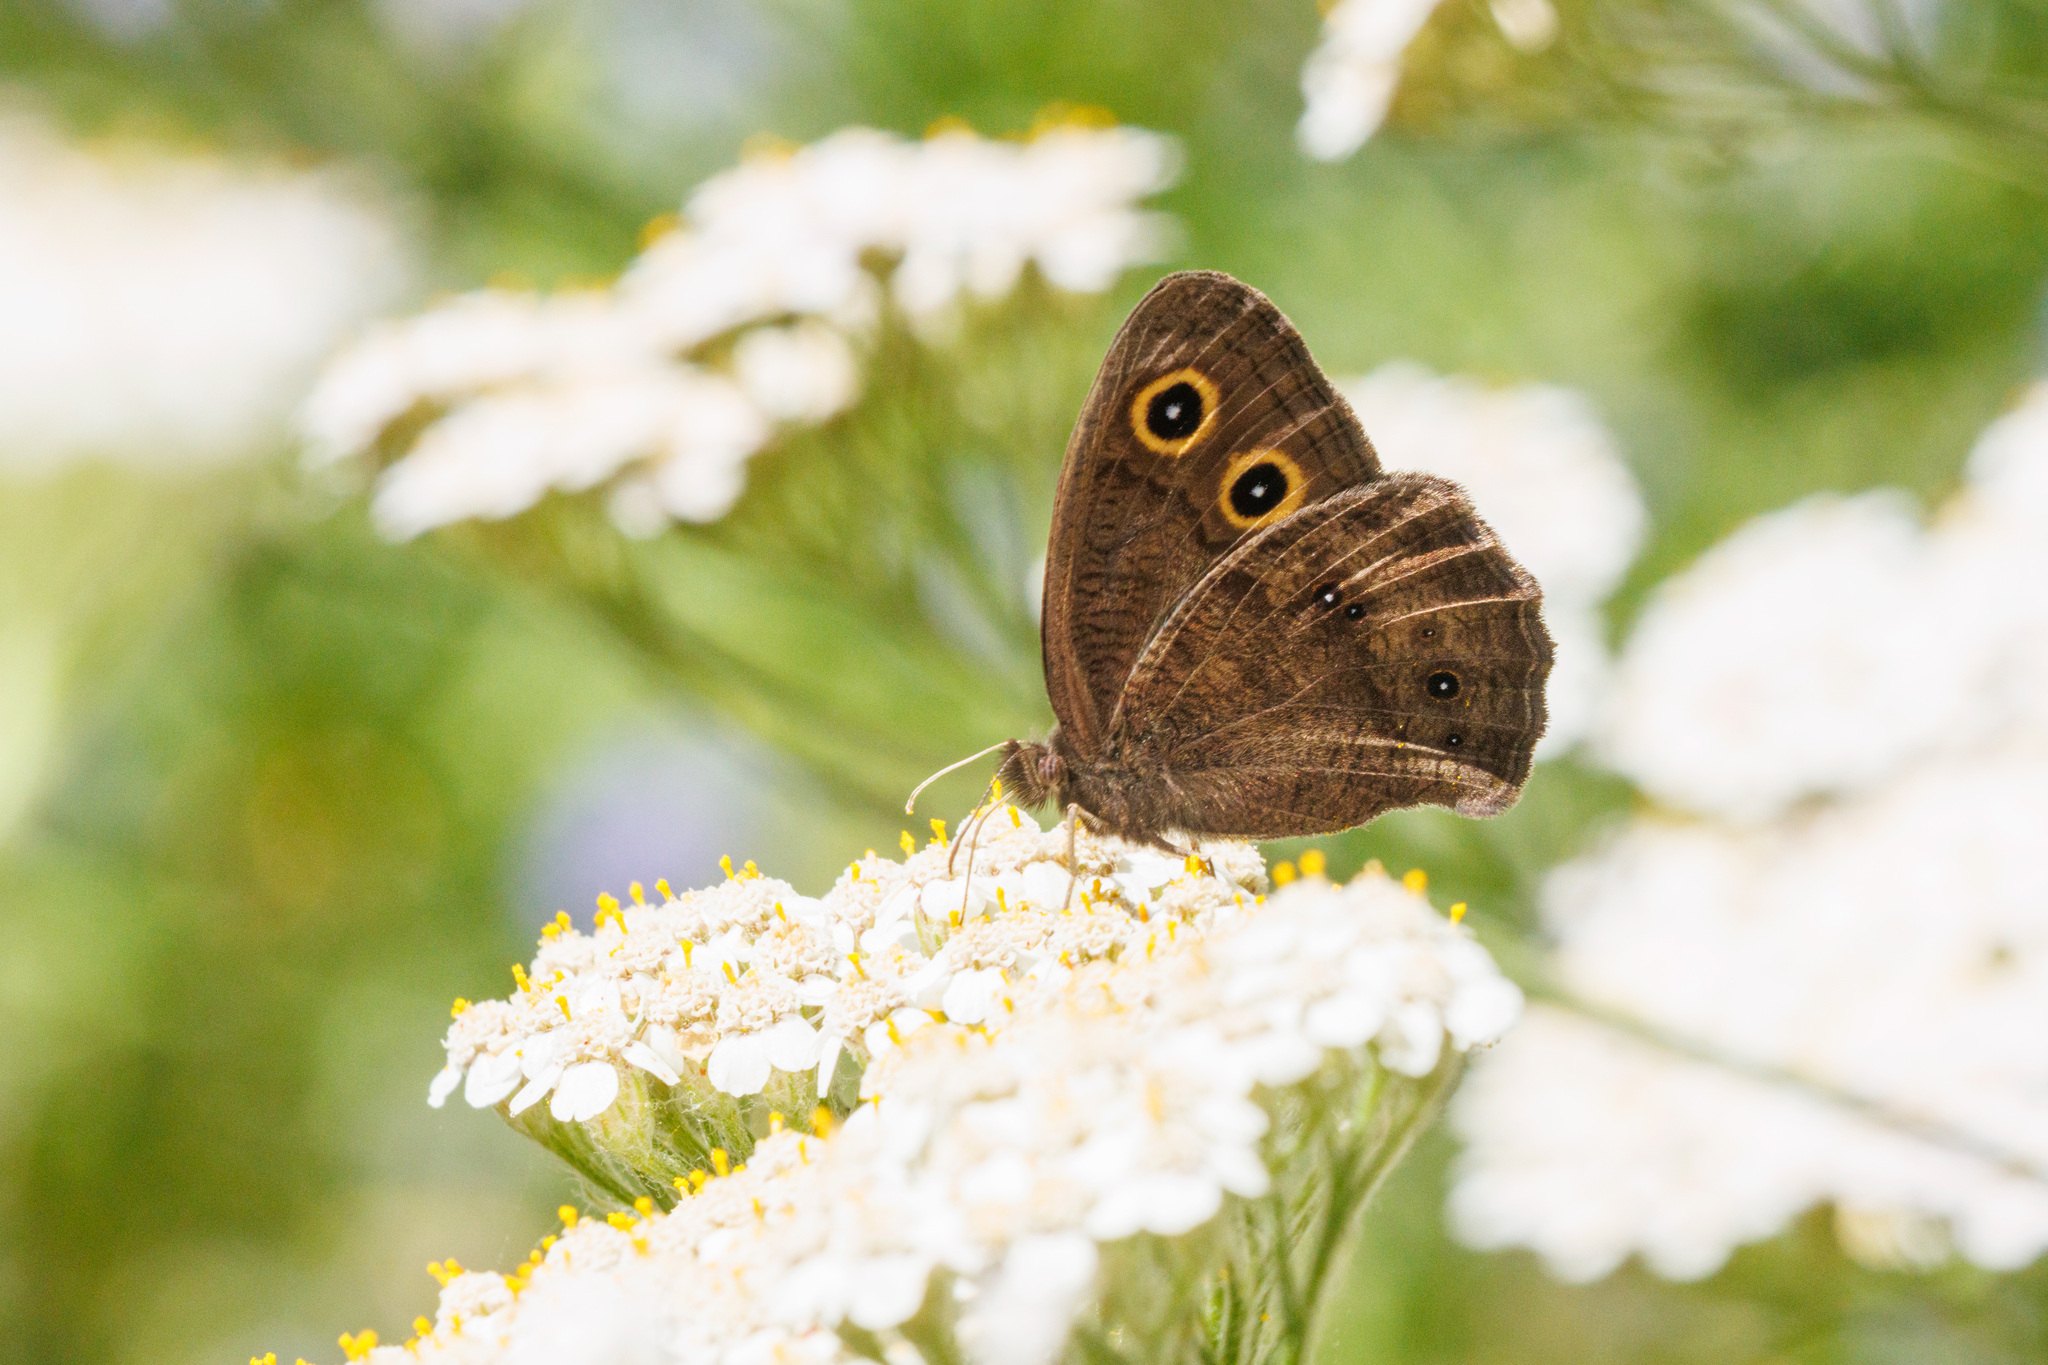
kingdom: Animalia
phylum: Arthropoda
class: Insecta
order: Lepidoptera
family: Nymphalidae
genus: Cercyonis
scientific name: Cercyonis pegala
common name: Common wood-nymph
